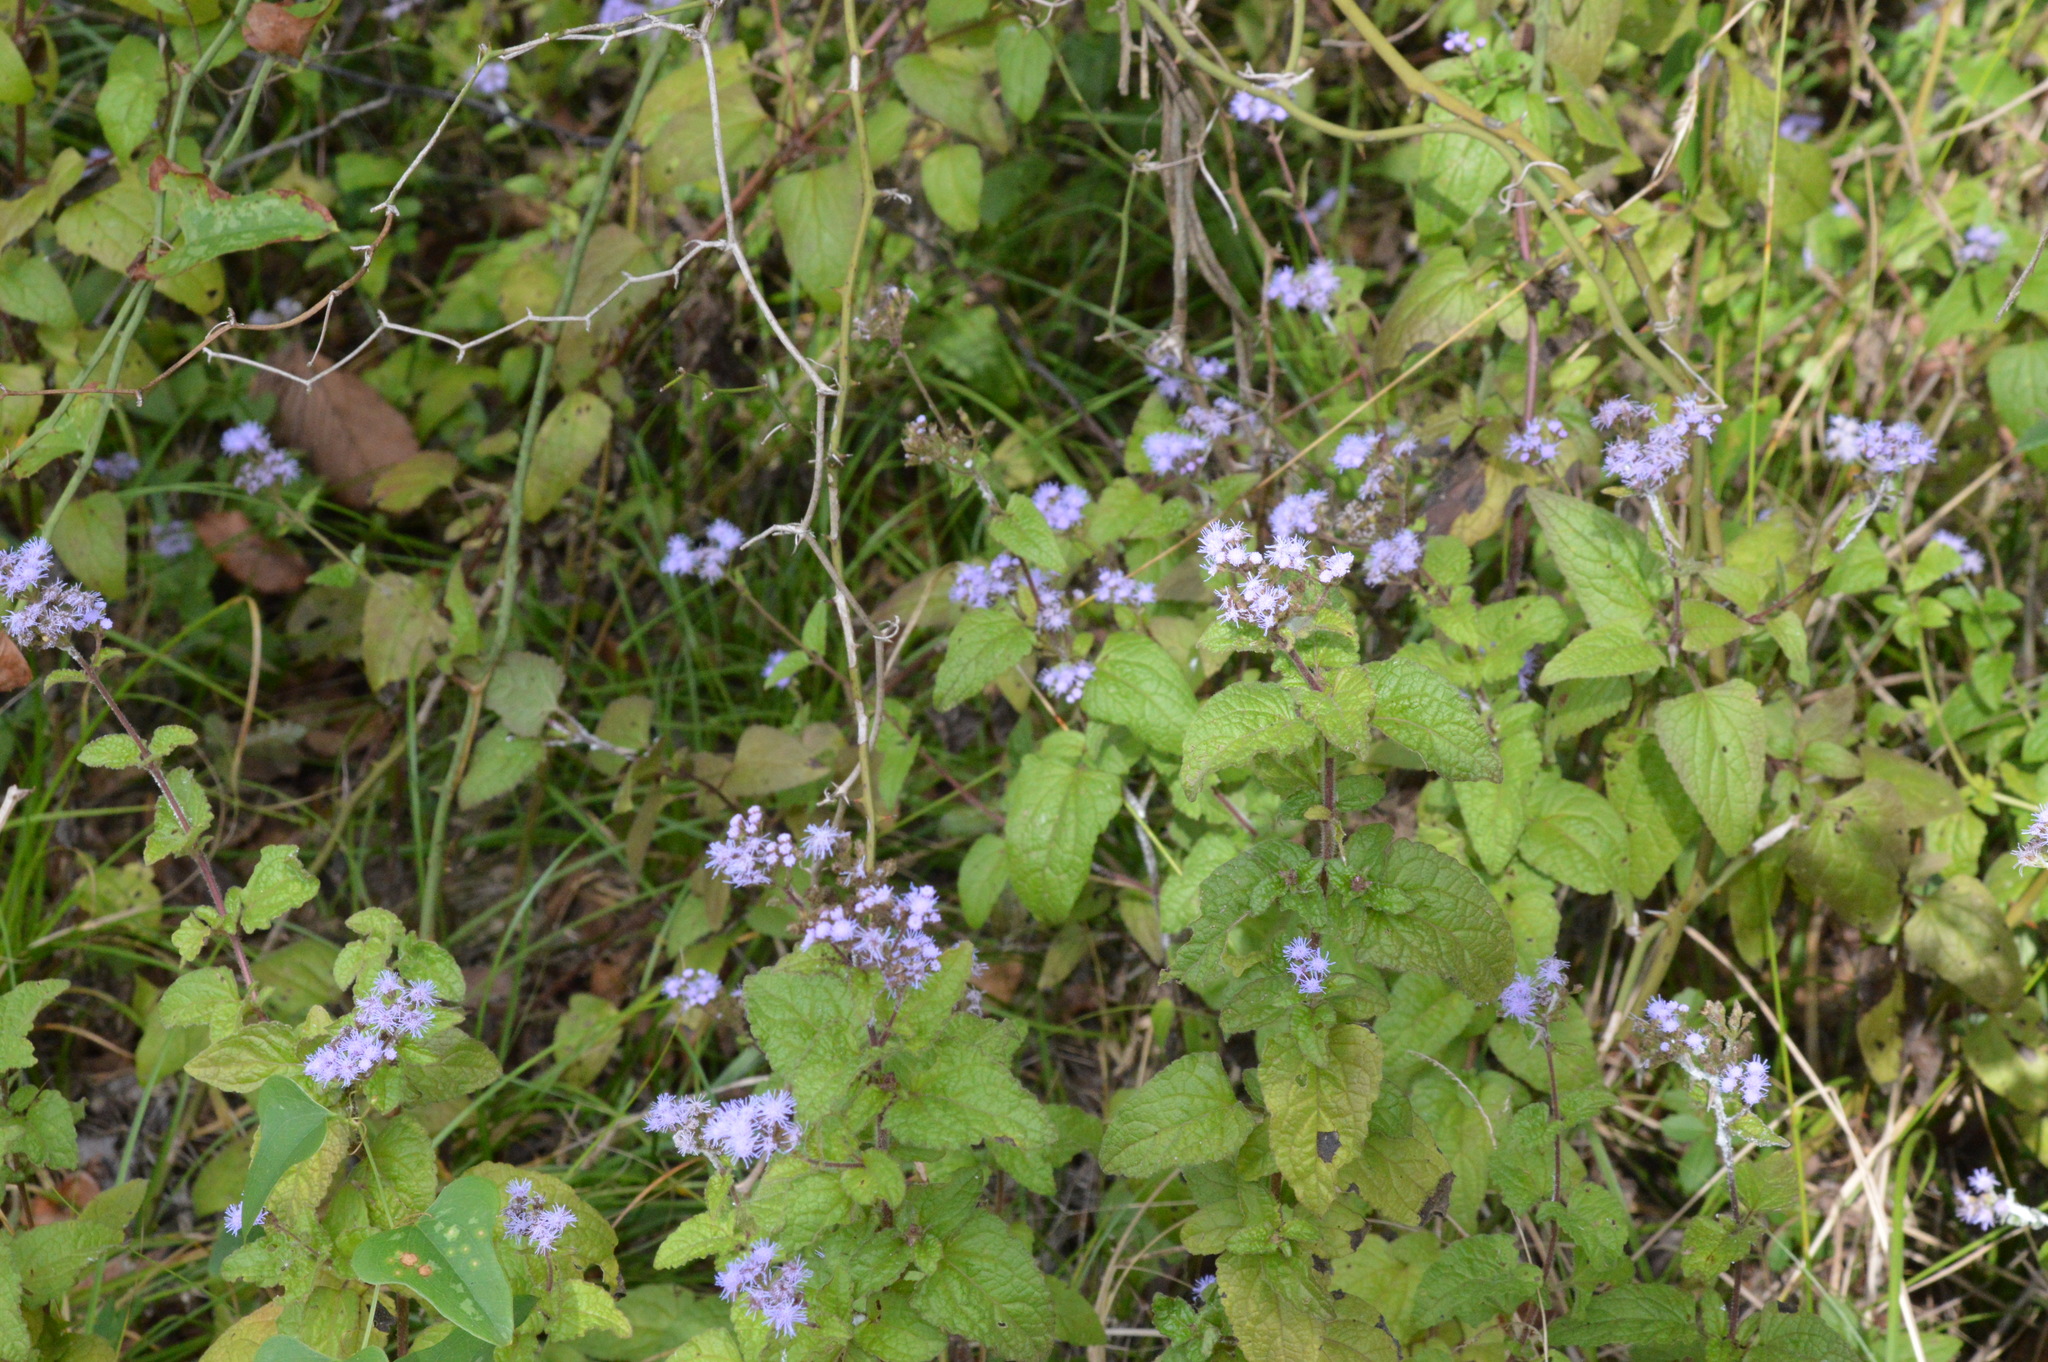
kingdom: Plantae
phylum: Tracheophyta
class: Magnoliopsida
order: Asterales
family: Asteraceae
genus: Conoclinium
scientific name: Conoclinium coelestinum
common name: Blue mistflower
